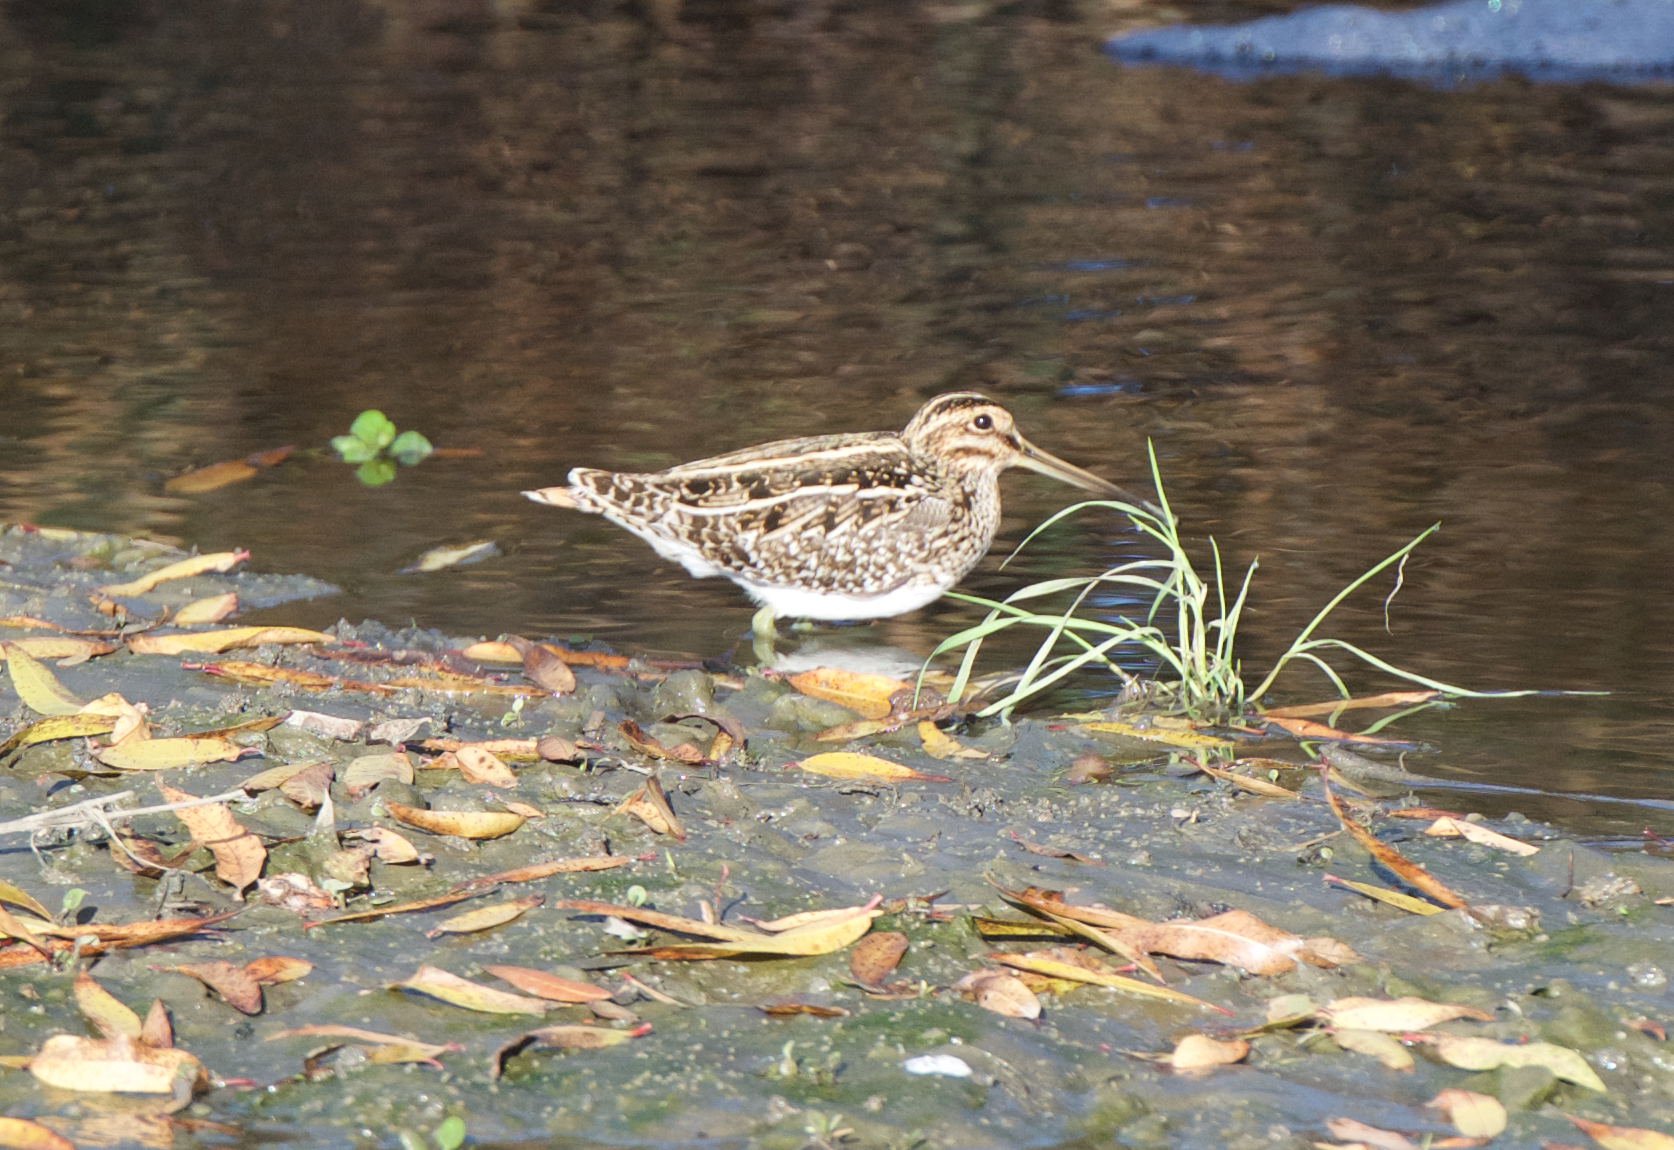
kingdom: Animalia
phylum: Chordata
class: Aves
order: Charadriiformes
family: Scolopacidae
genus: Gallinago
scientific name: Gallinago delicata
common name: Wilson's snipe
